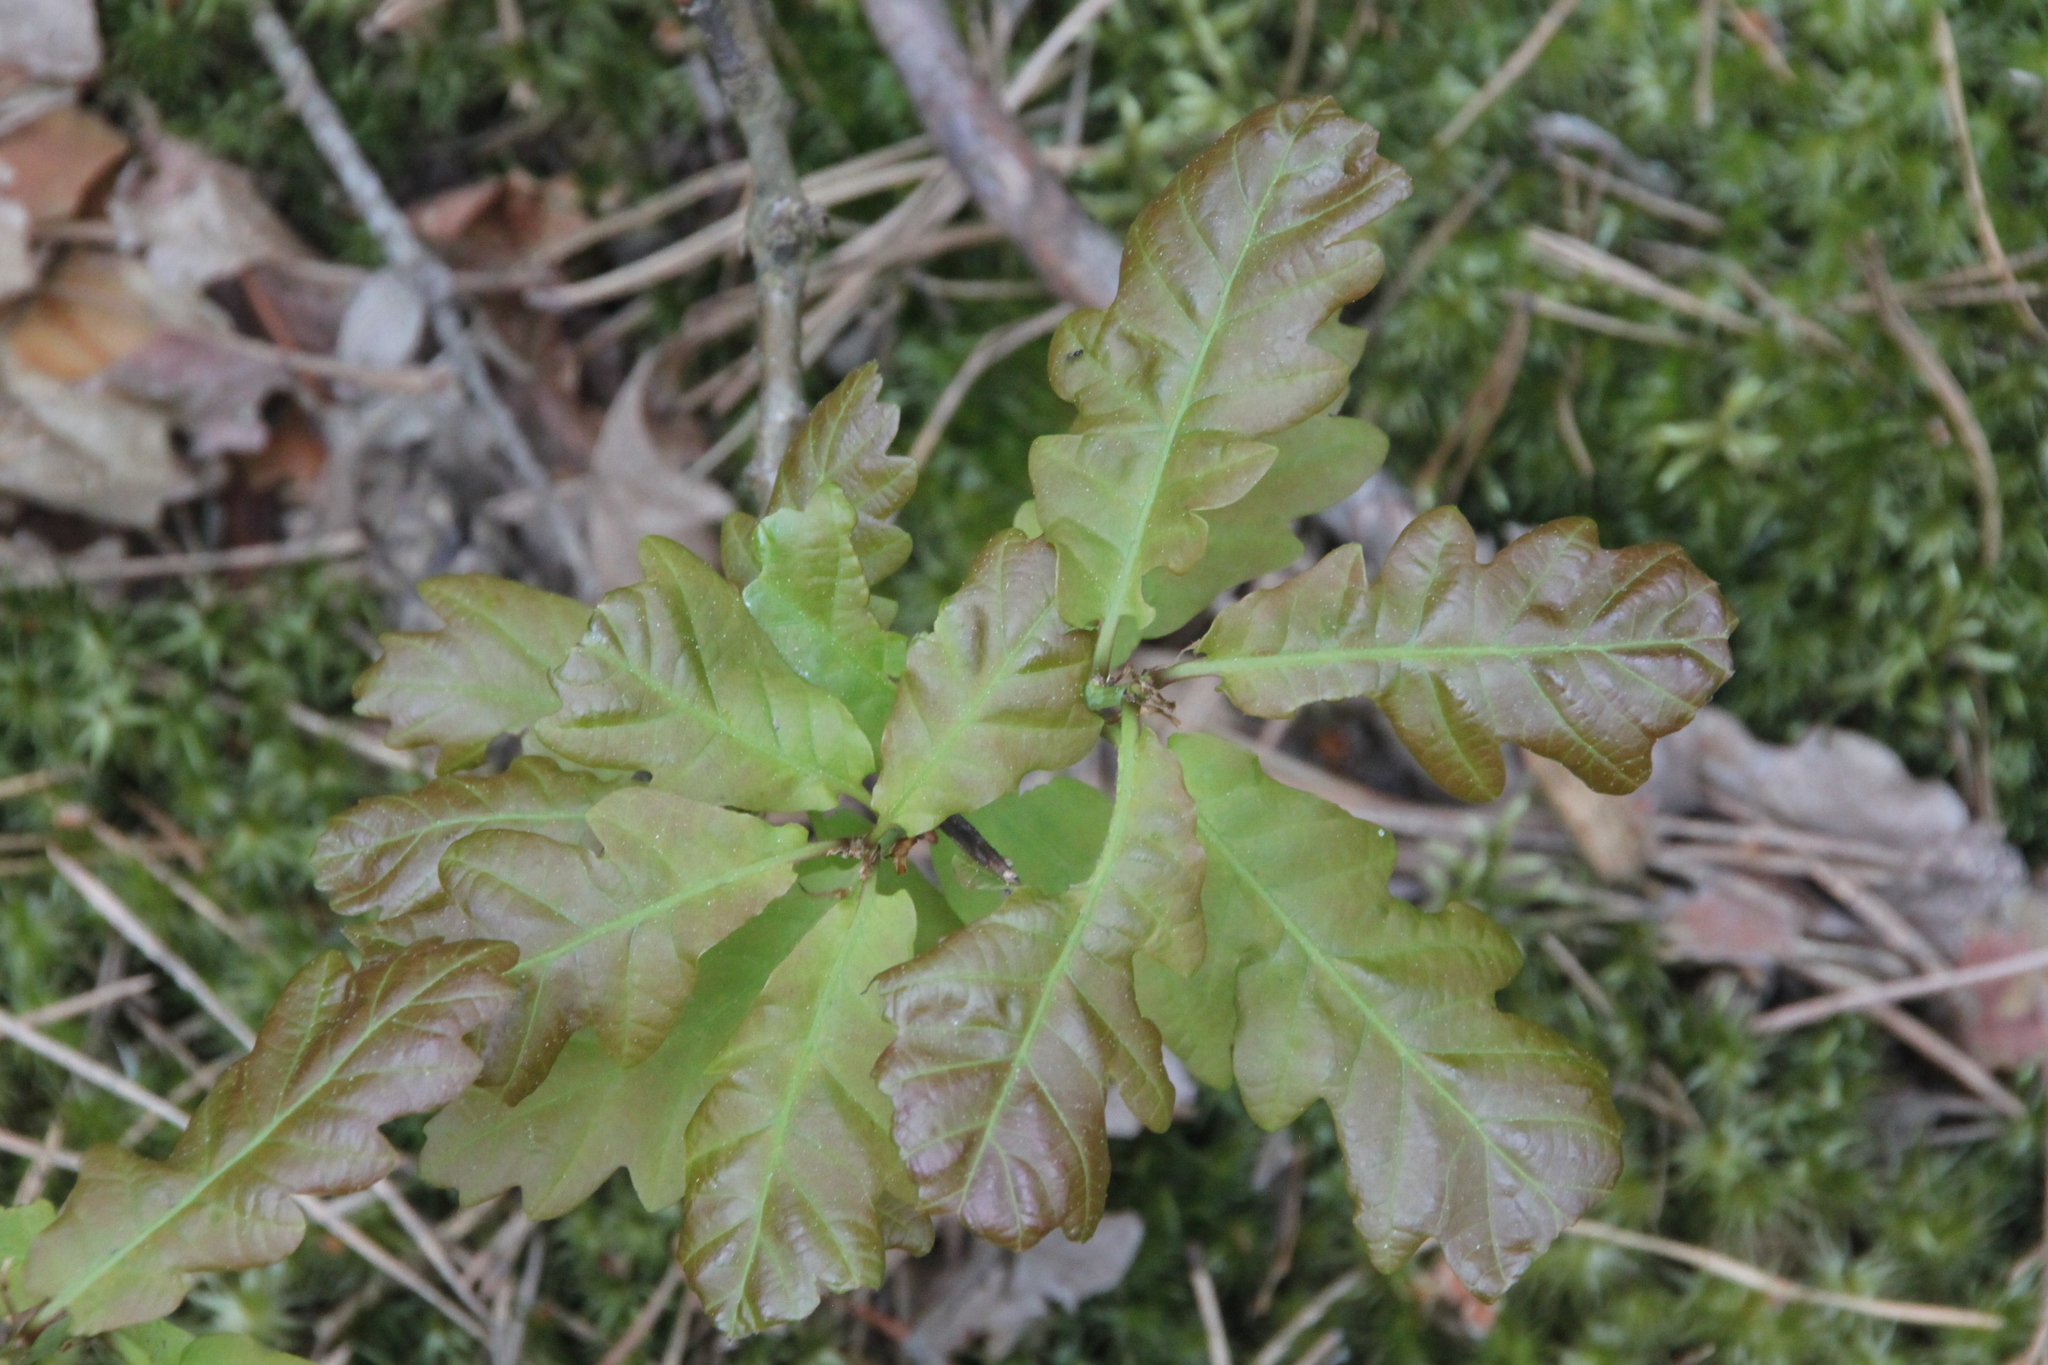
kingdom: Plantae
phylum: Tracheophyta
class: Magnoliopsida
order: Fagales
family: Fagaceae
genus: Quercus
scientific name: Quercus robur
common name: Pedunculate oak
